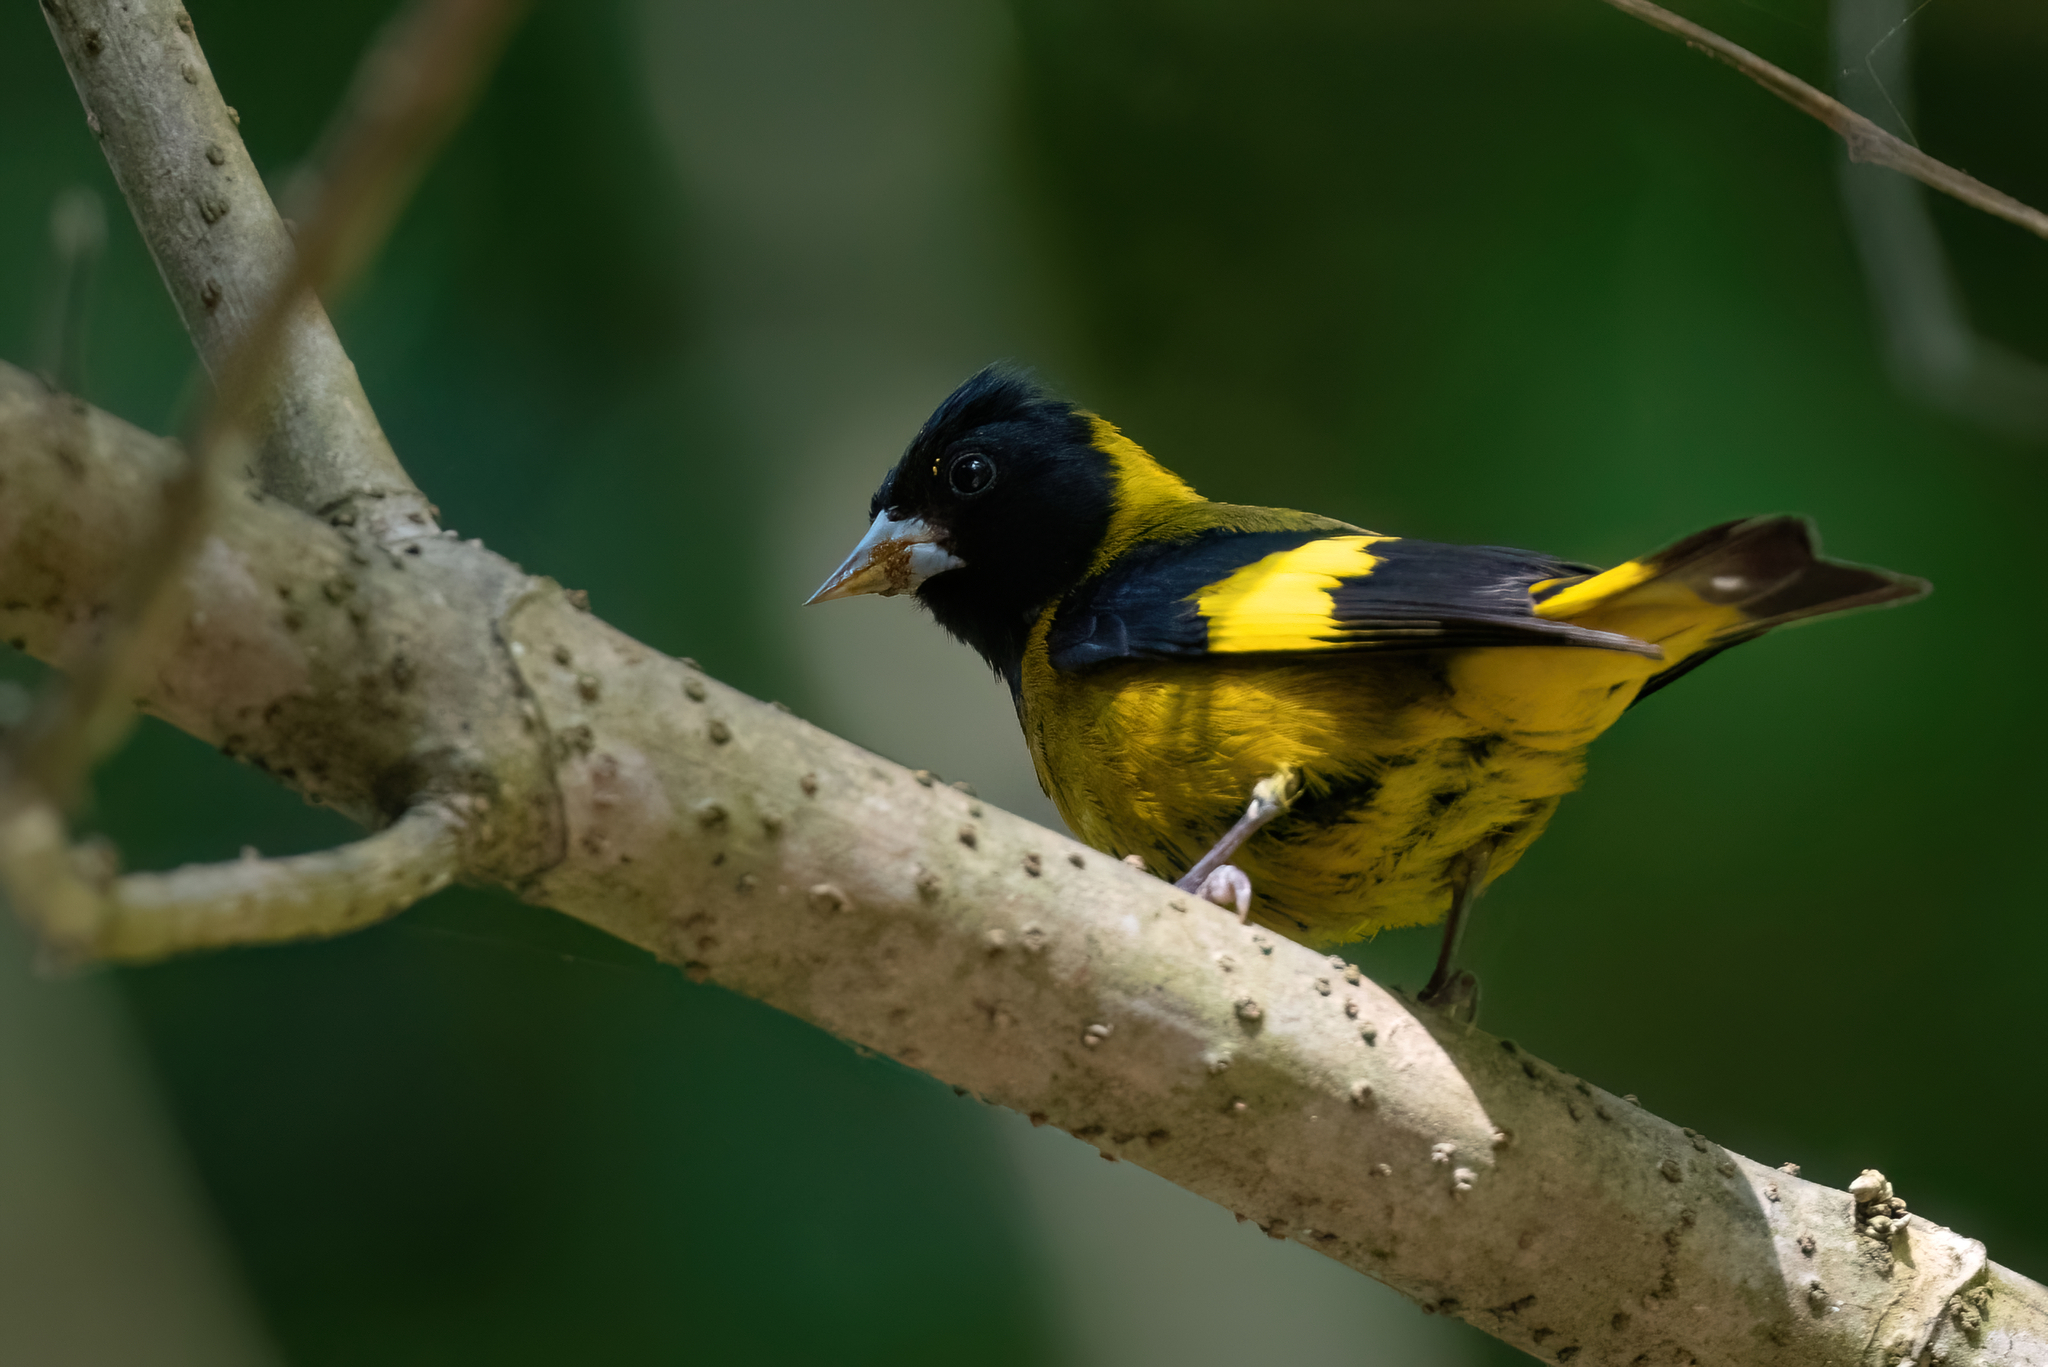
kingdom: Animalia
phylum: Chordata
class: Aves
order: Passeriformes
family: Fringillidae
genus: Spinus
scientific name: Spinus notatus
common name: Black-headed siskin
